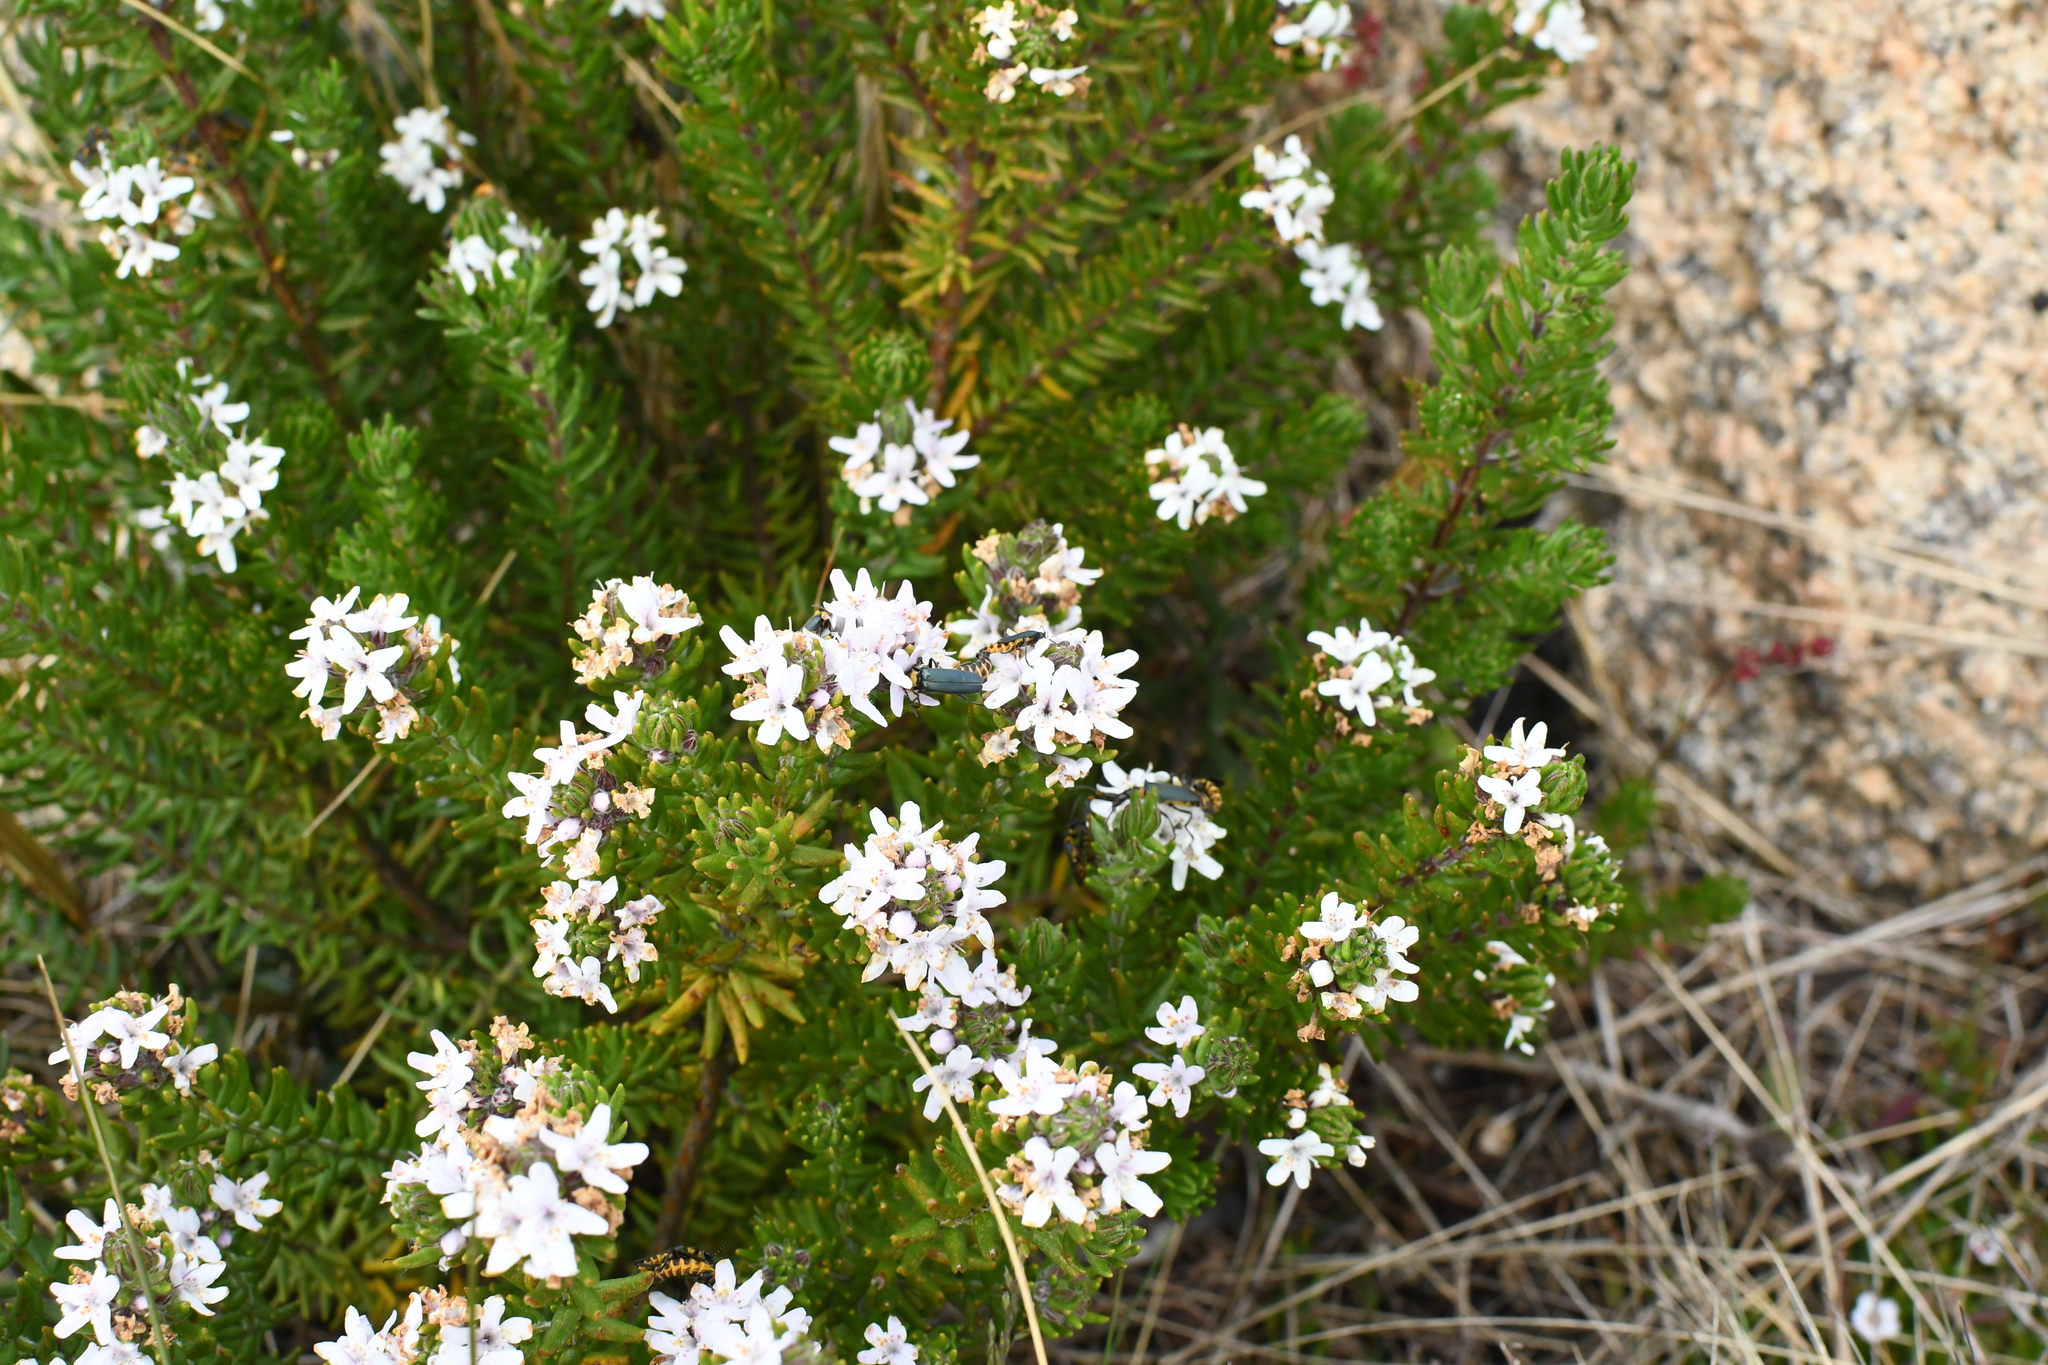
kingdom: Plantae
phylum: Tracheophyta
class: Magnoliopsida
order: Lamiales
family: Lamiaceae
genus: Westringia
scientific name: Westringia senifolia
